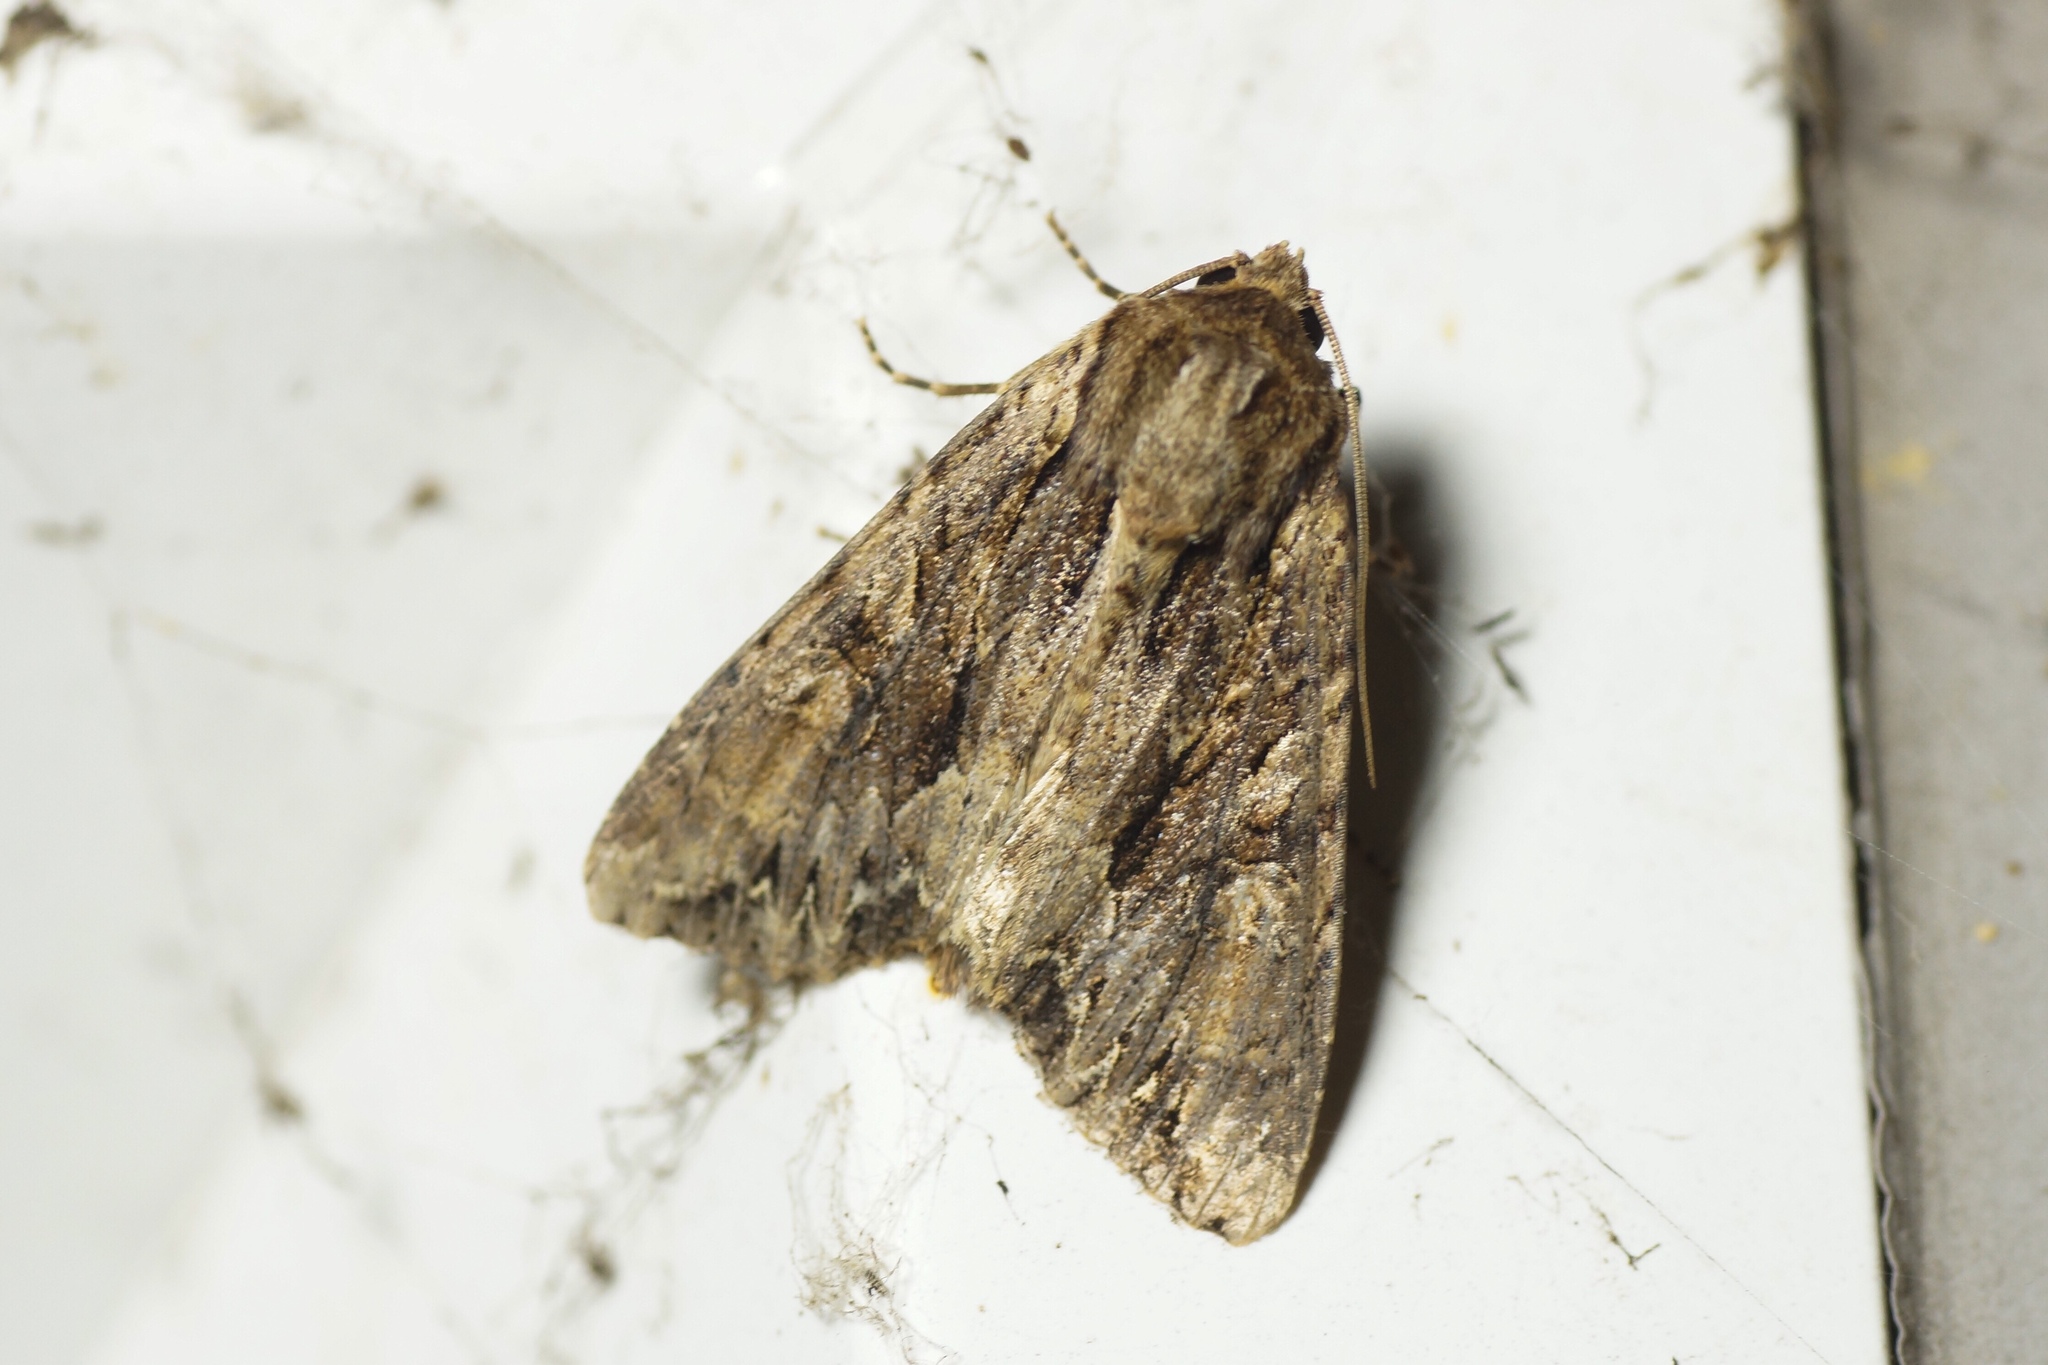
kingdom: Animalia
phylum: Arthropoda
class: Insecta
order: Lepidoptera
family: Noctuidae
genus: Apamea
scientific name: Apamea monoglypha
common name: Dark arches
